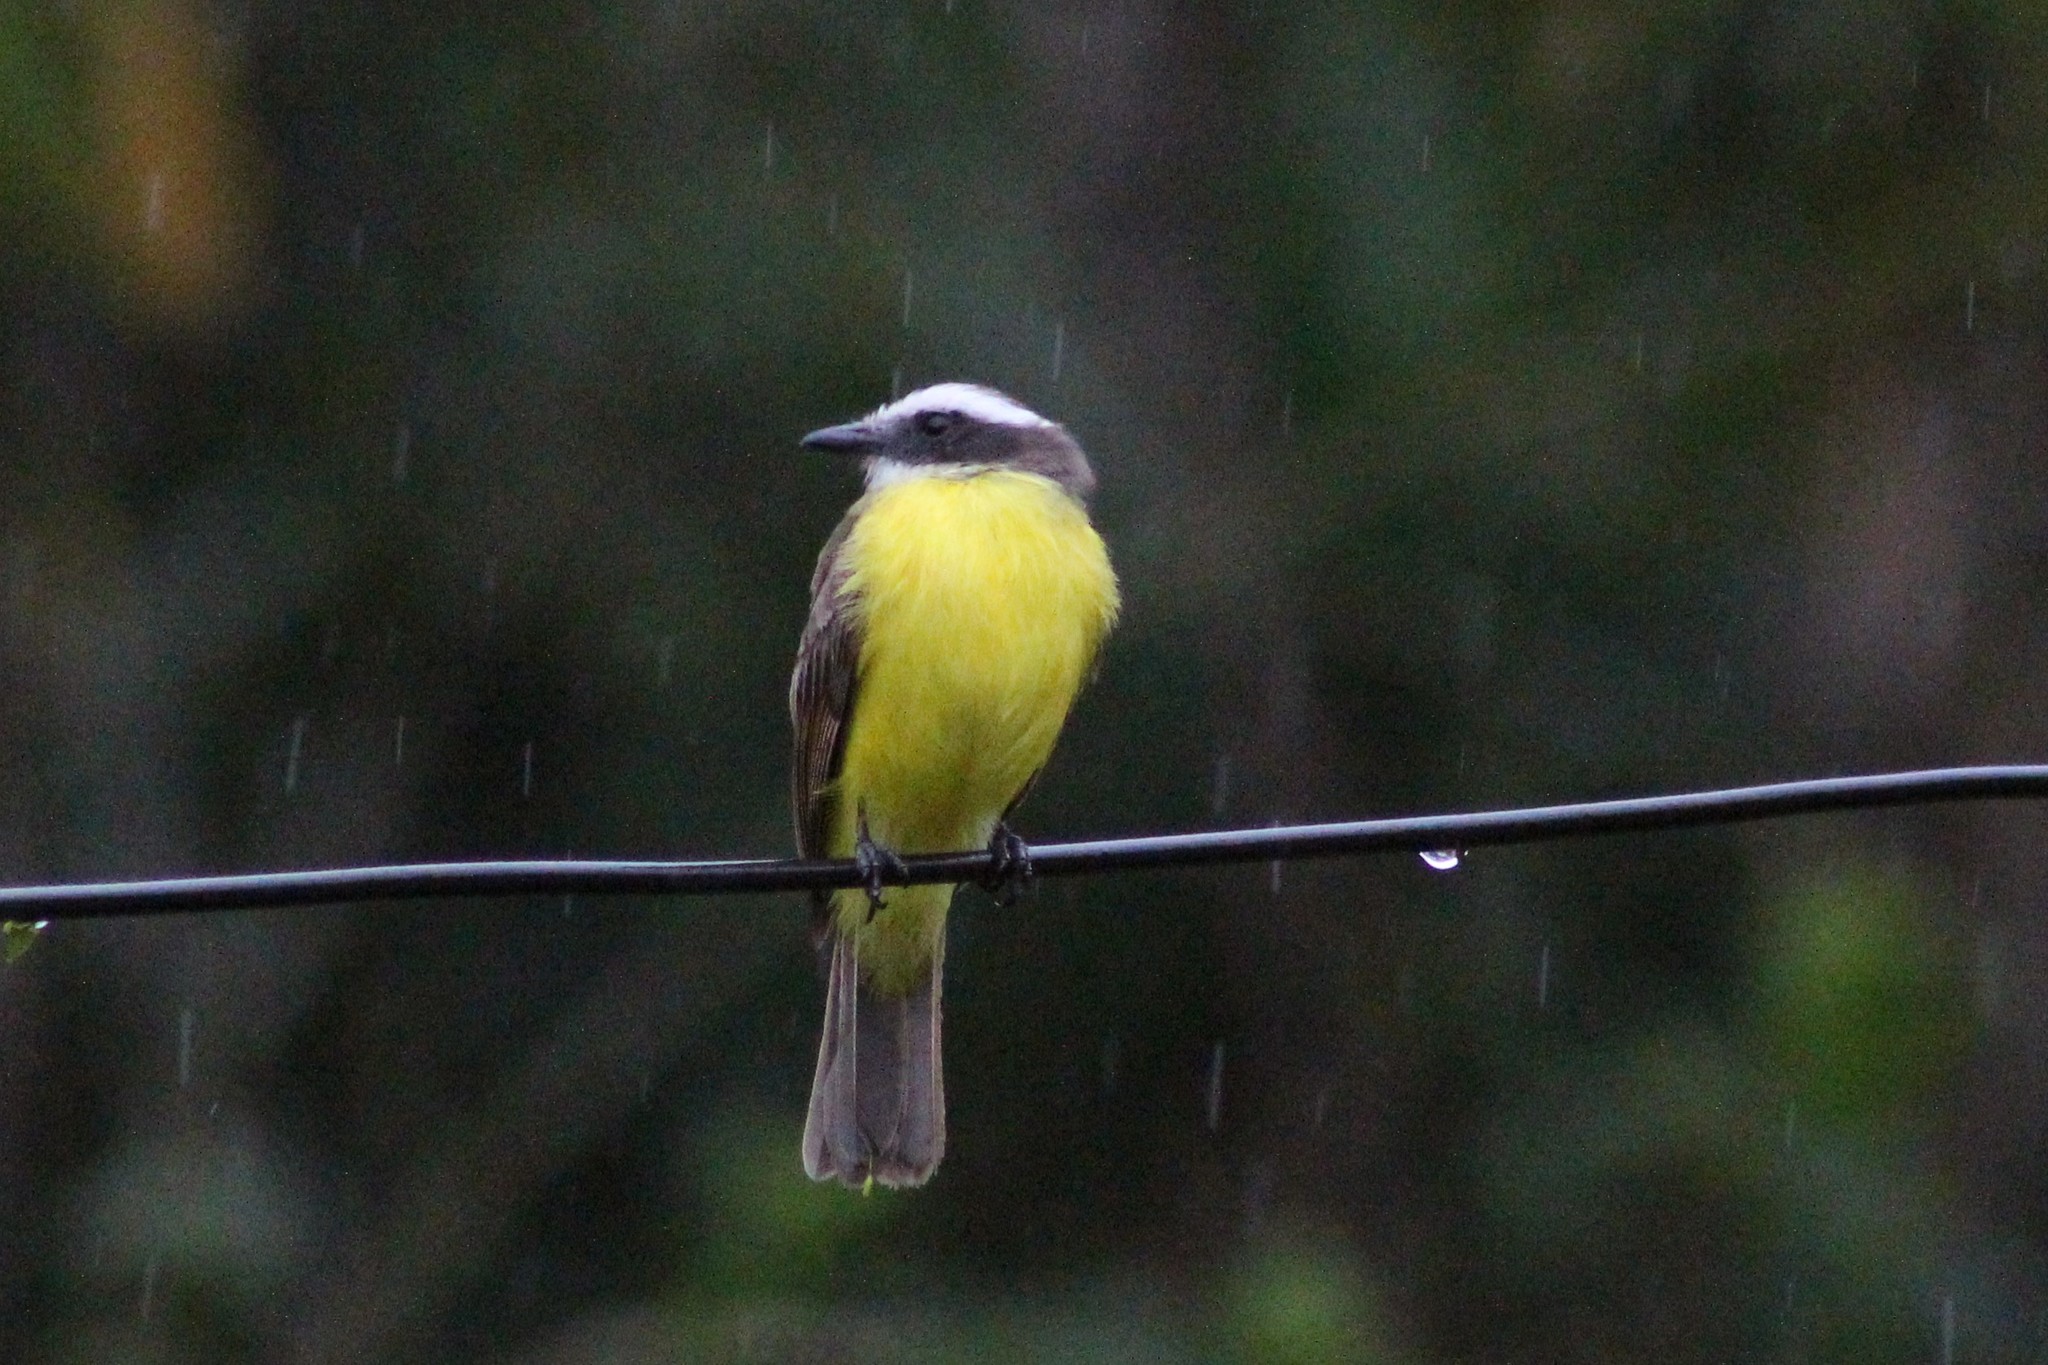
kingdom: Animalia
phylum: Chordata
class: Aves
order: Passeriformes
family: Tyrannidae
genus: Myiozetetes
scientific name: Myiozetetes similis
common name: Social flycatcher
